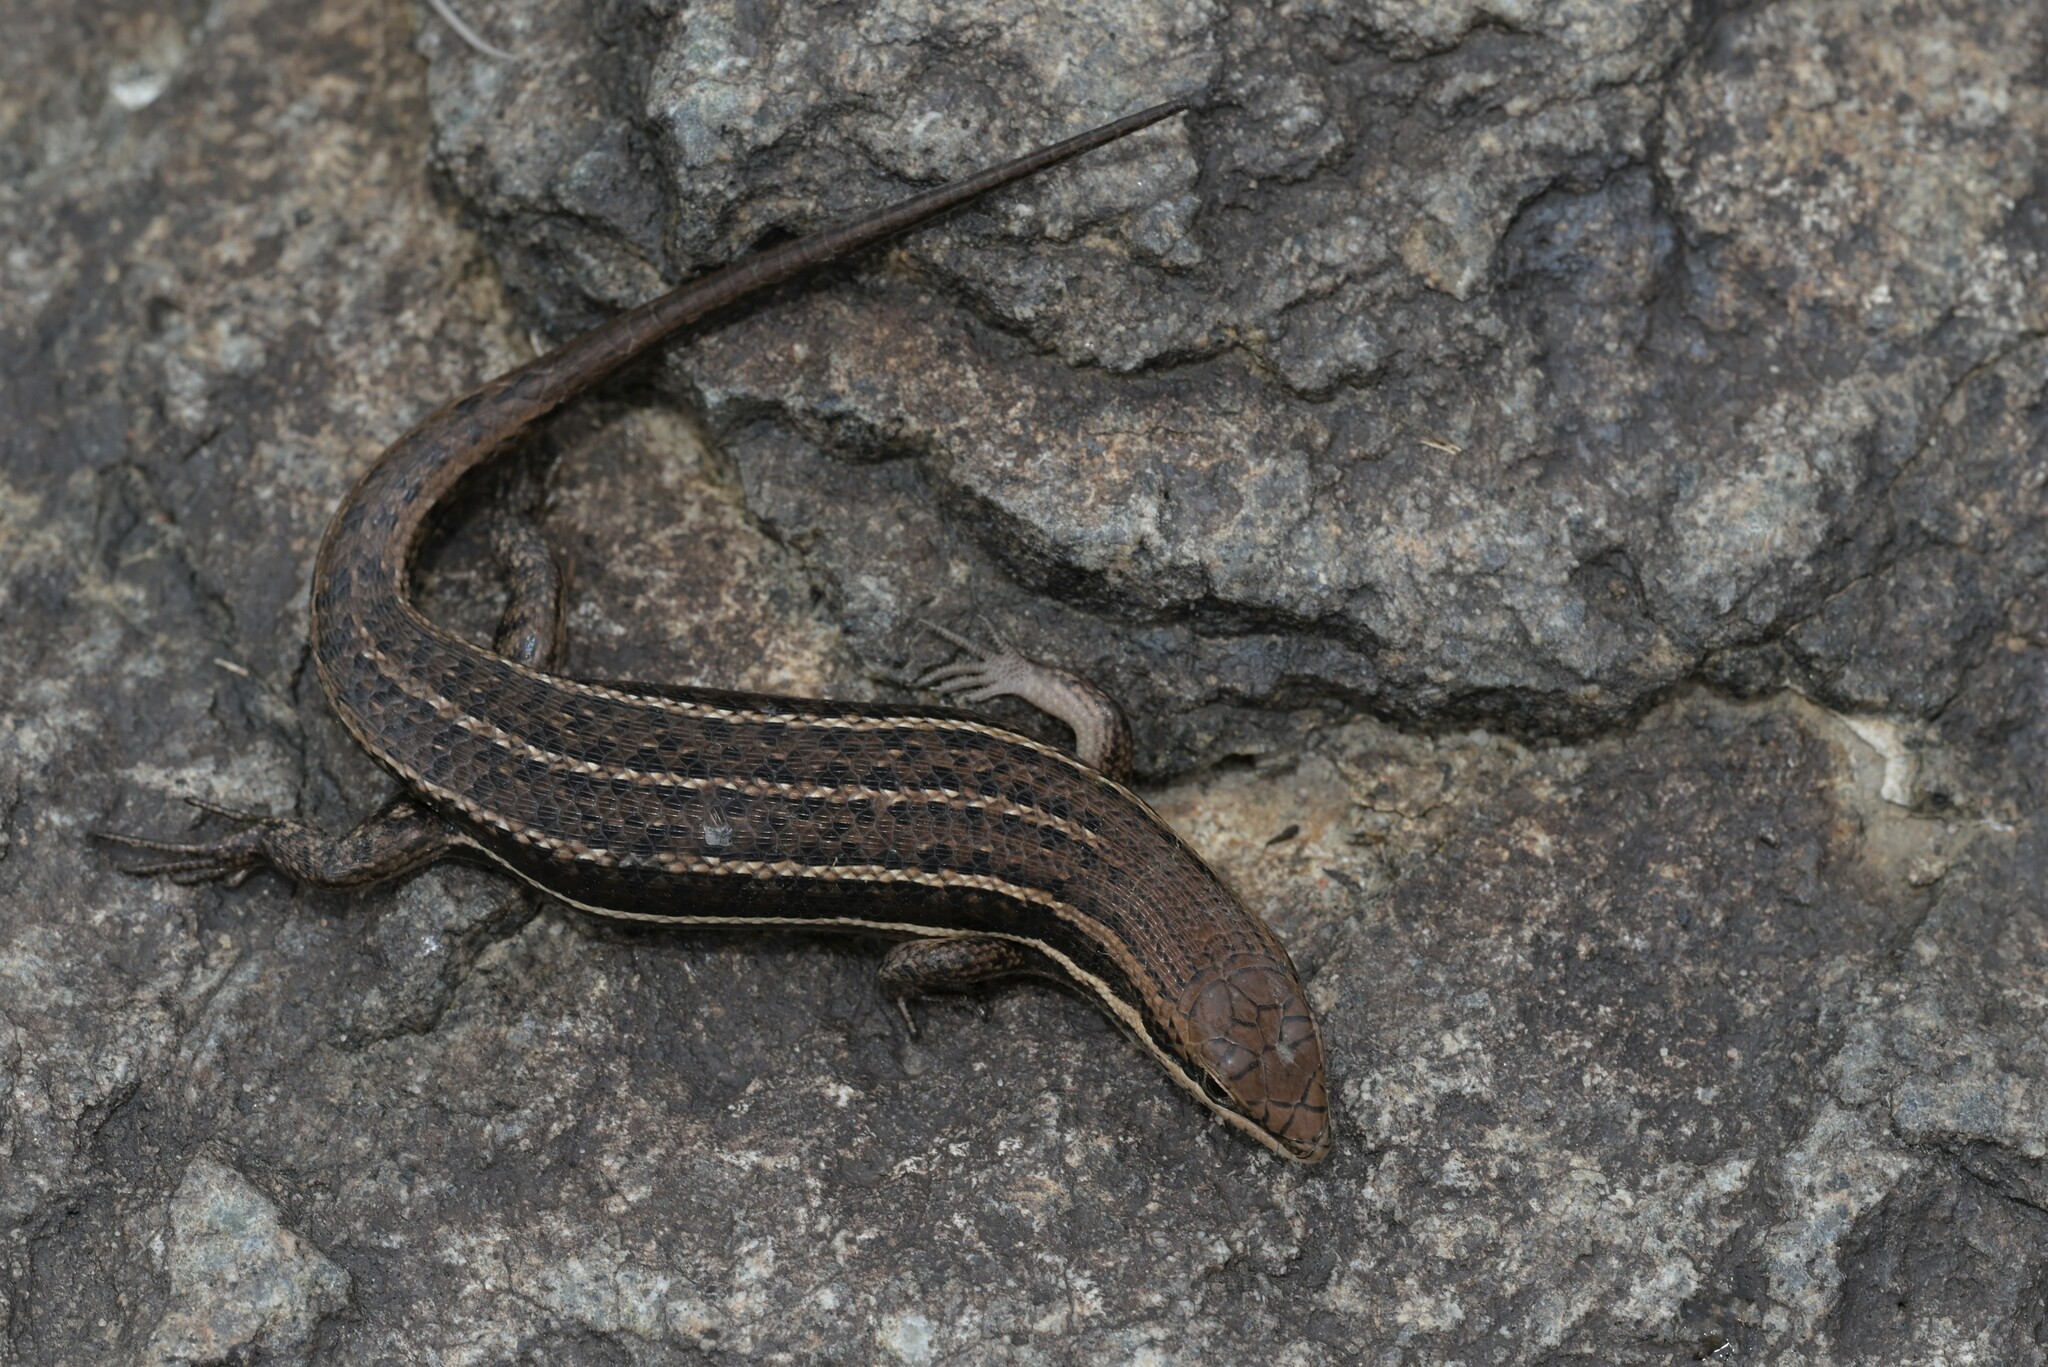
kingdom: Animalia
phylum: Chordata
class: Squamata
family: Scincidae
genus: Trachylepis
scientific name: Trachylepis varia
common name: Eastern variable skink
